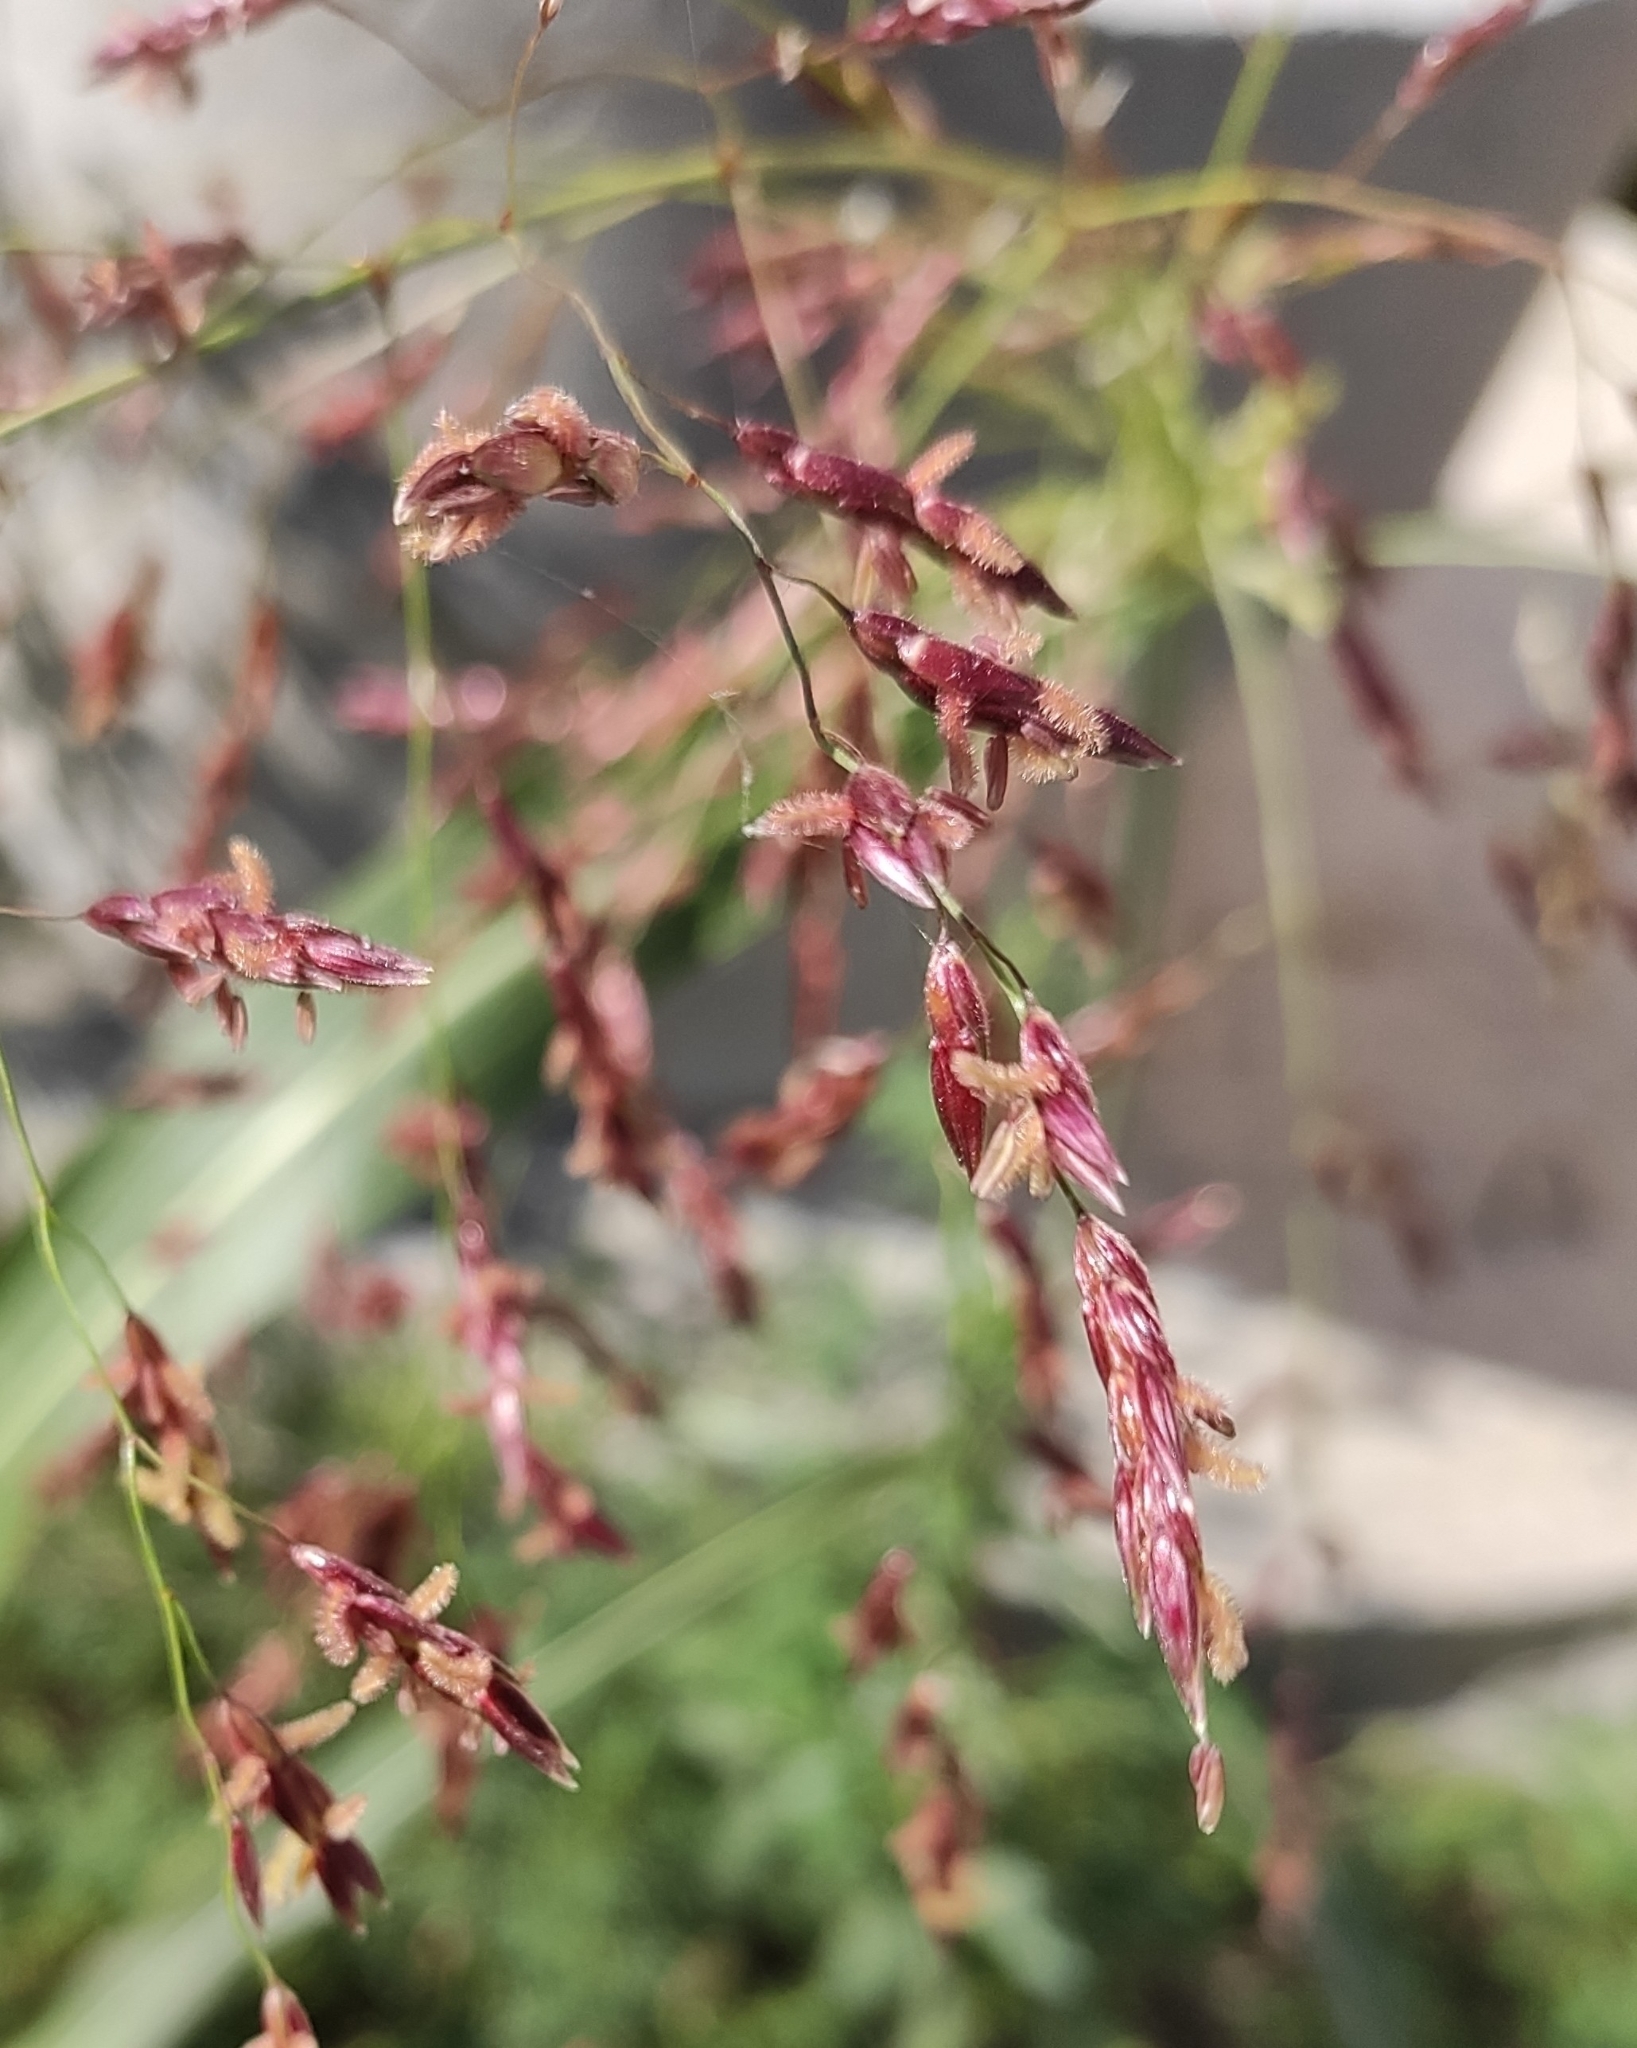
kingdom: Plantae
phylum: Tracheophyta
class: Liliopsida
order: Poales
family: Poaceae
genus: Sorghum
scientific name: Sorghum drummondii
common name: Sudangrass
